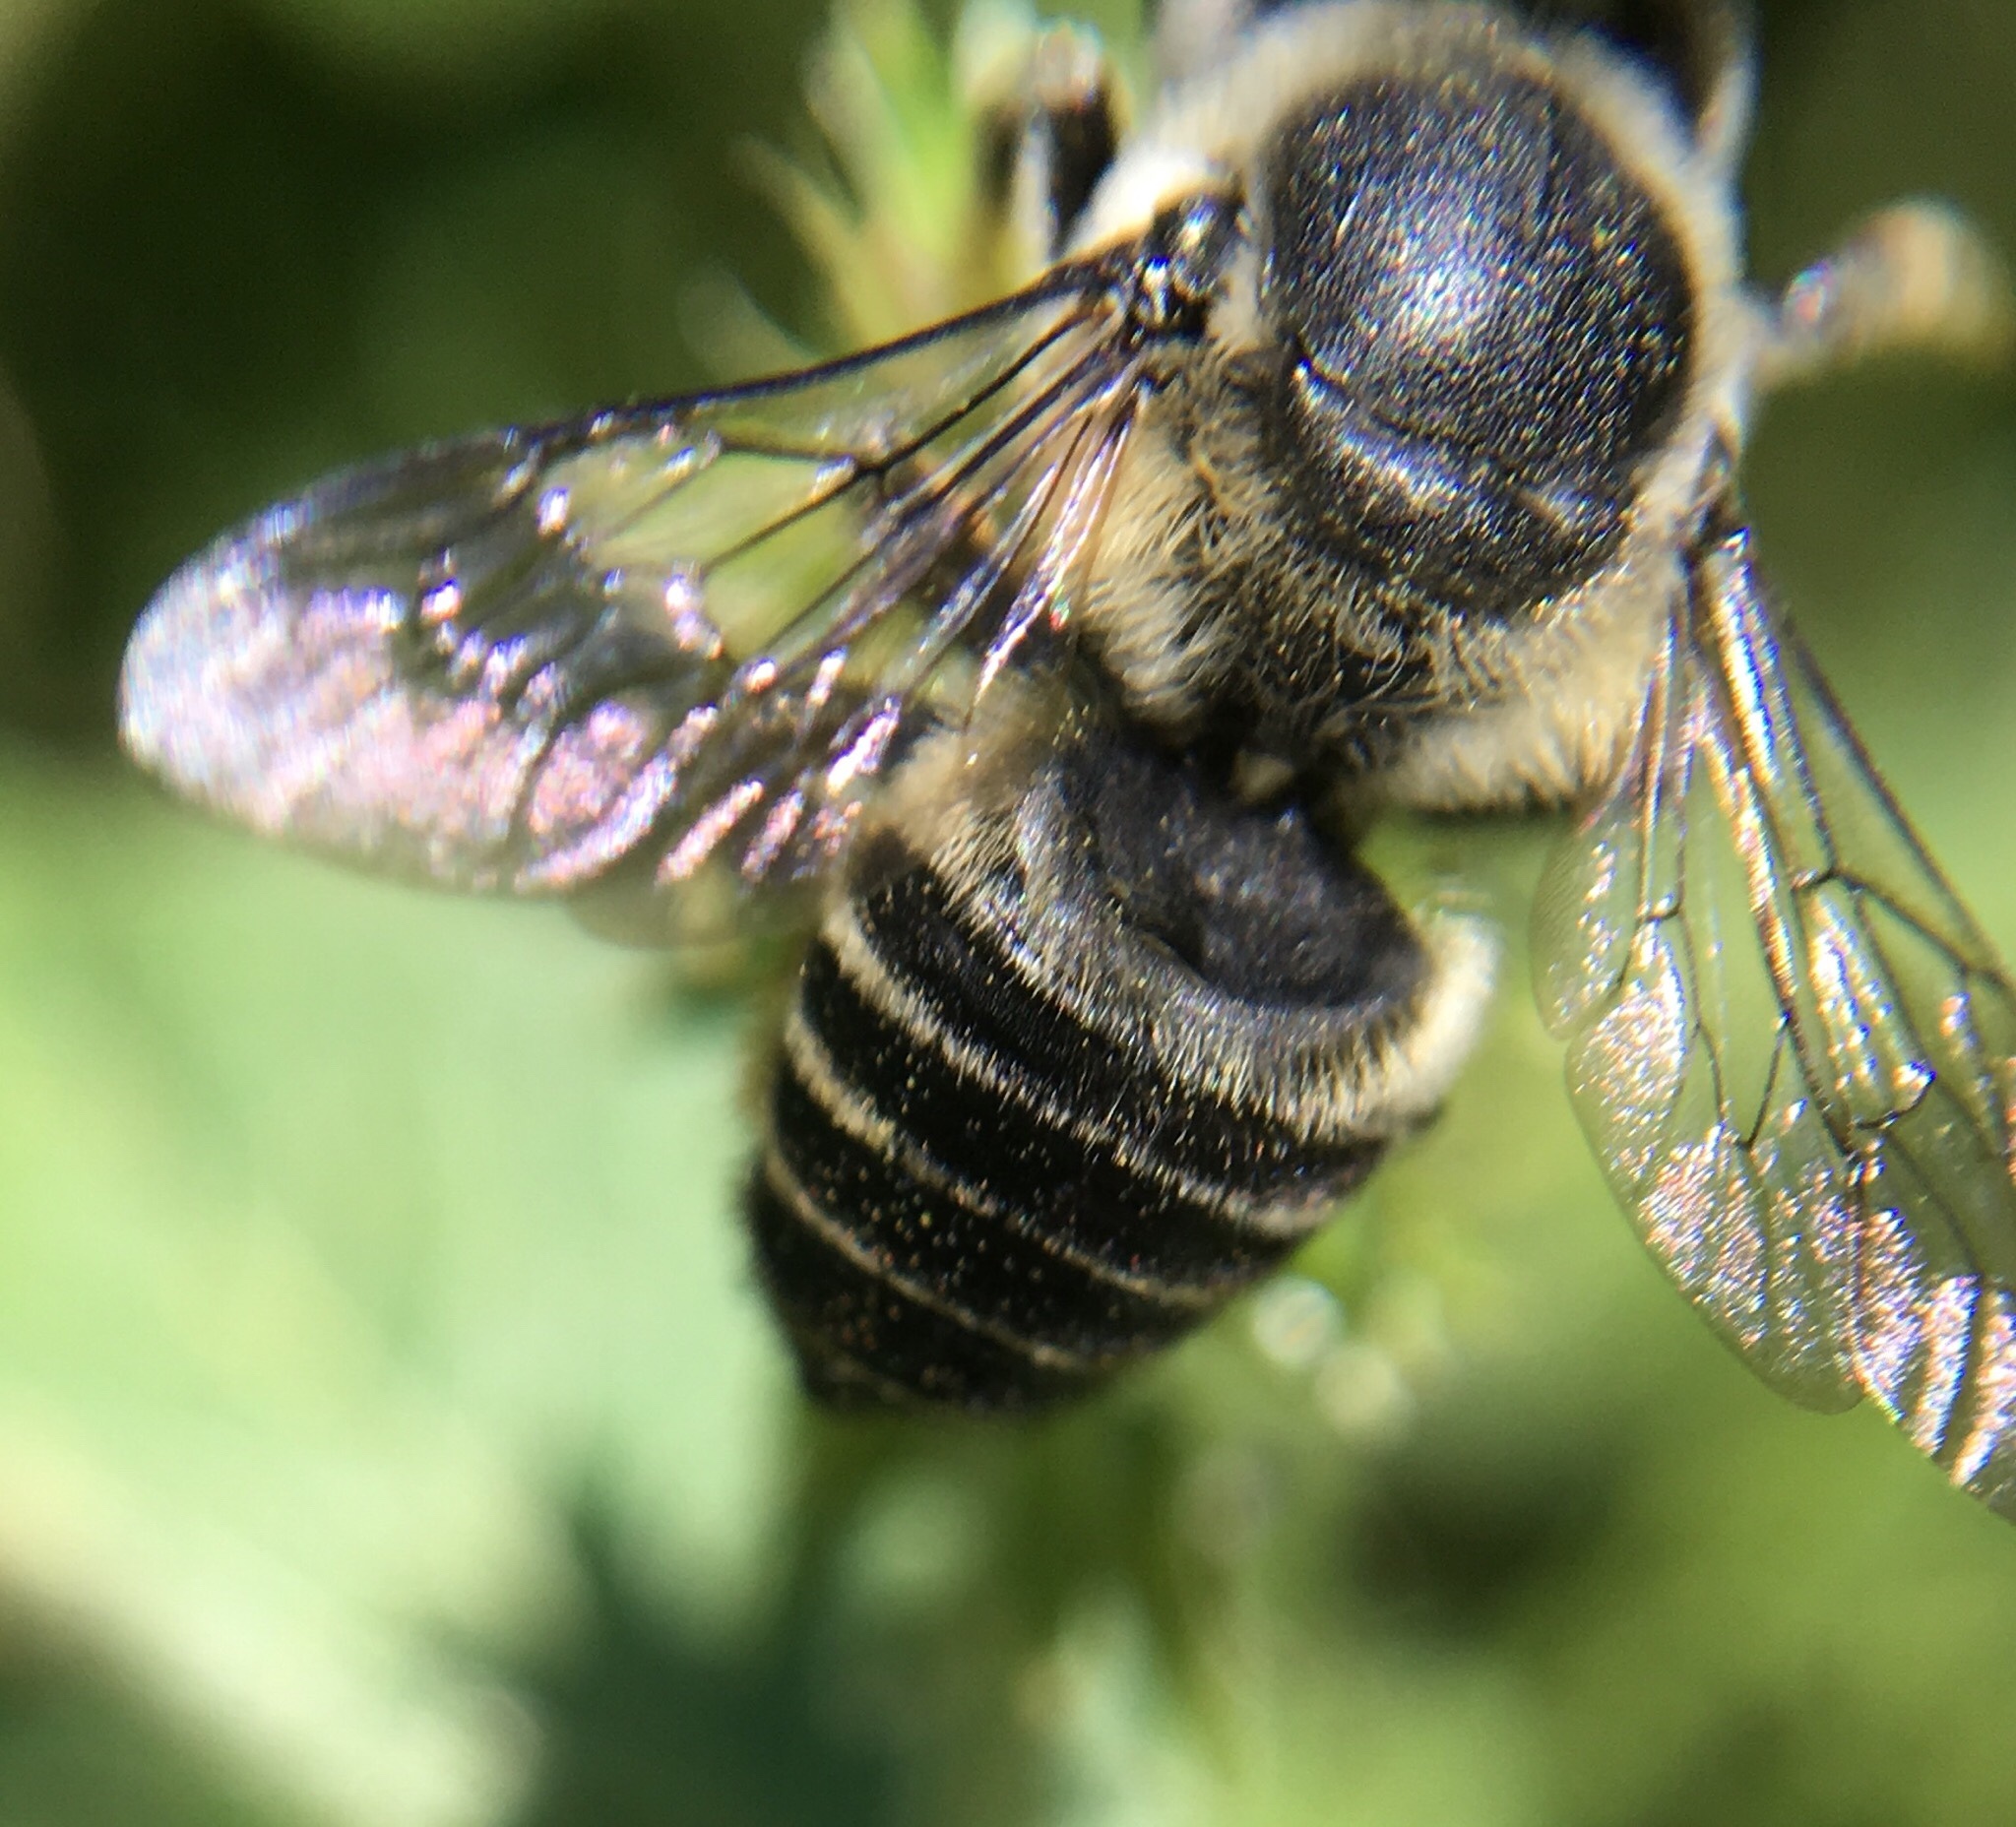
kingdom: Animalia
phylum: Arthropoda
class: Insecta
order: Hymenoptera
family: Megachilidae
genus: Megachile
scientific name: Megachile mendica
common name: Flat-tailed leafcutter
